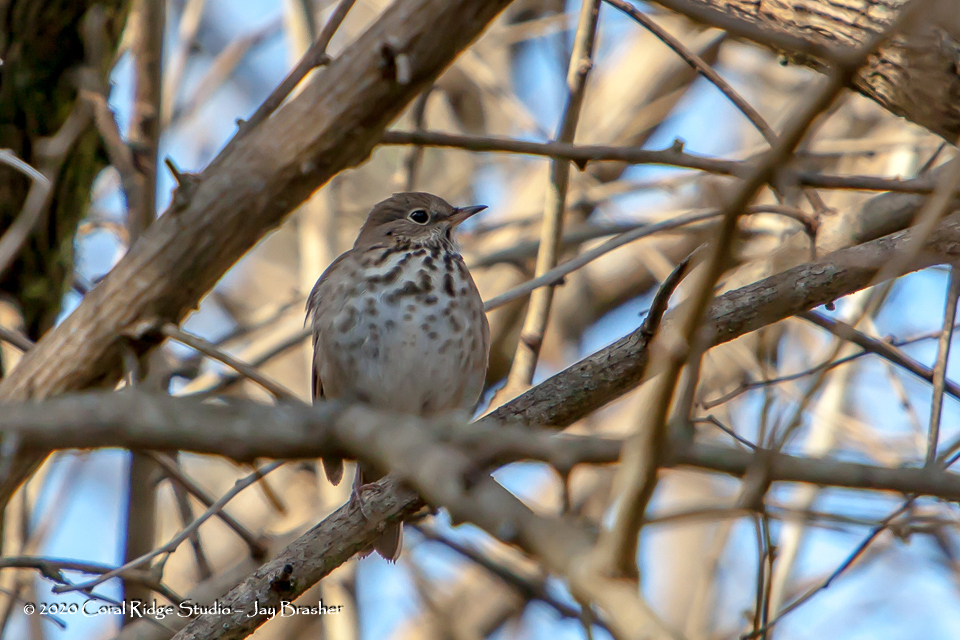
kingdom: Animalia
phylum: Chordata
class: Aves
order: Passeriformes
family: Turdidae
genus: Catharus
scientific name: Catharus guttatus
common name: Hermit thrush
